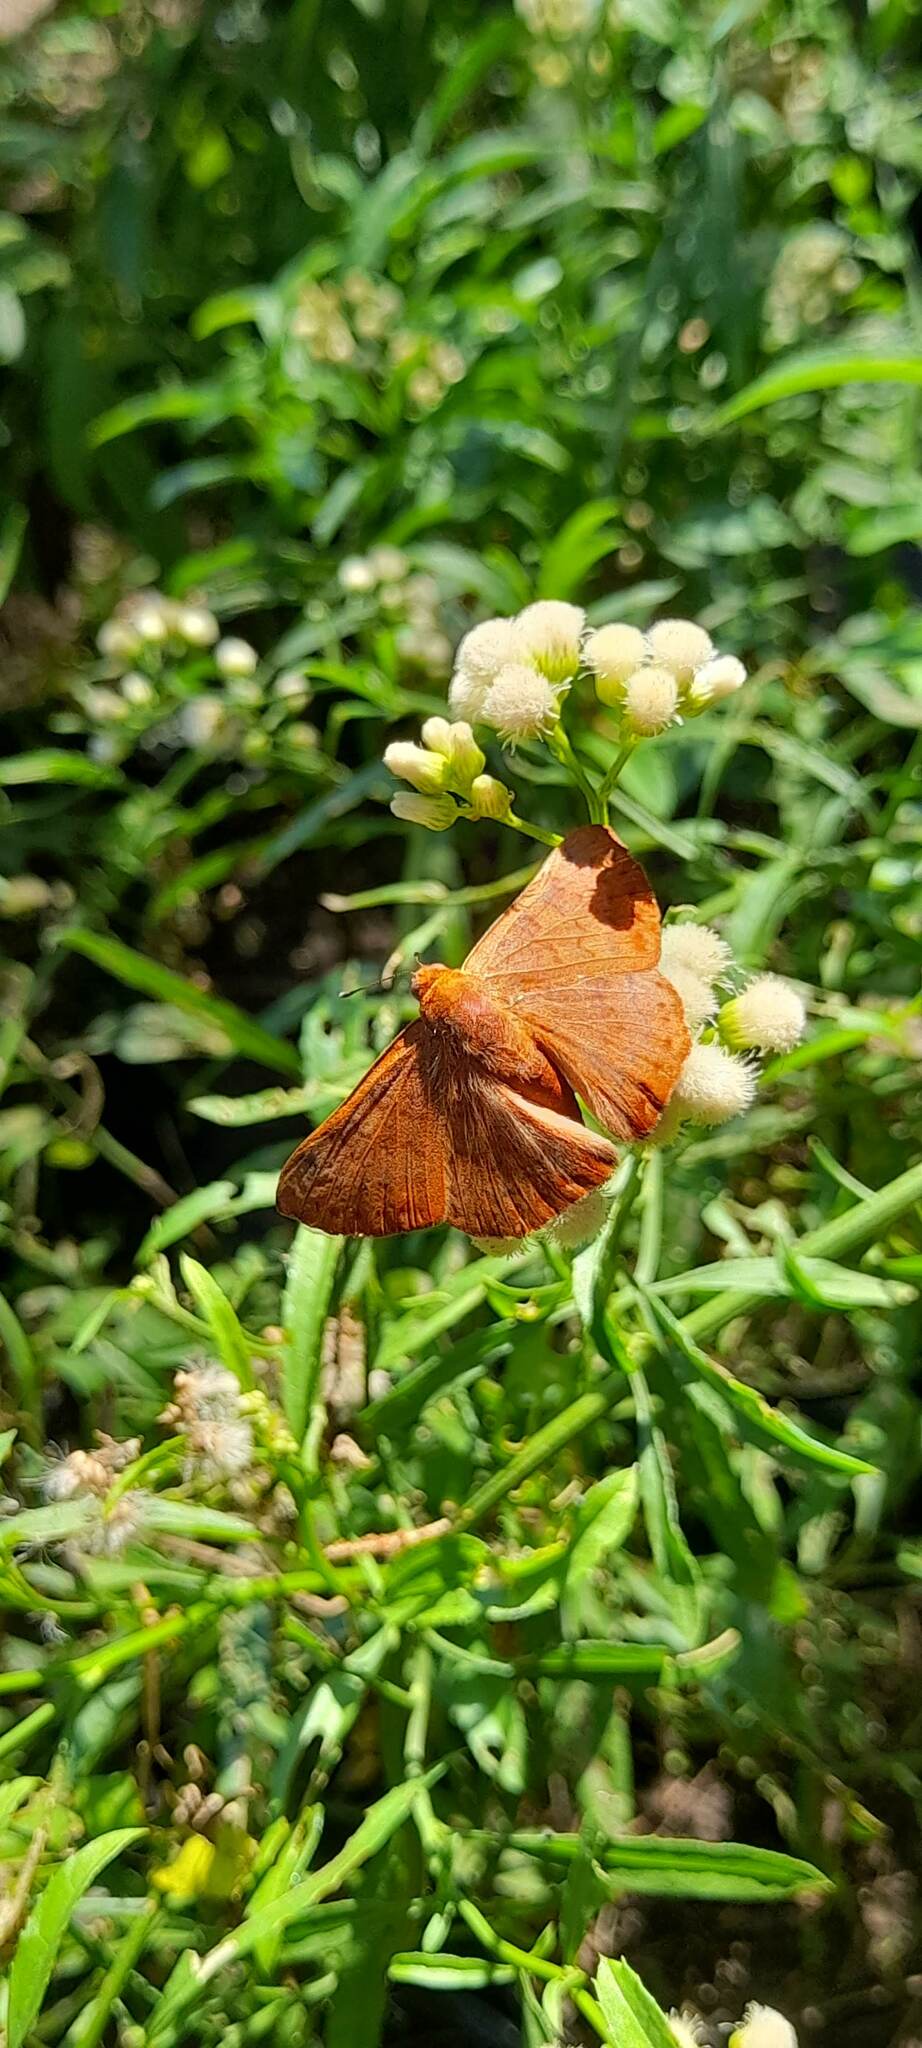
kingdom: Animalia
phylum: Arthropoda
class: Insecta
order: Lepidoptera
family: Lycaenidae
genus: Emesis
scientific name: Emesis russula
